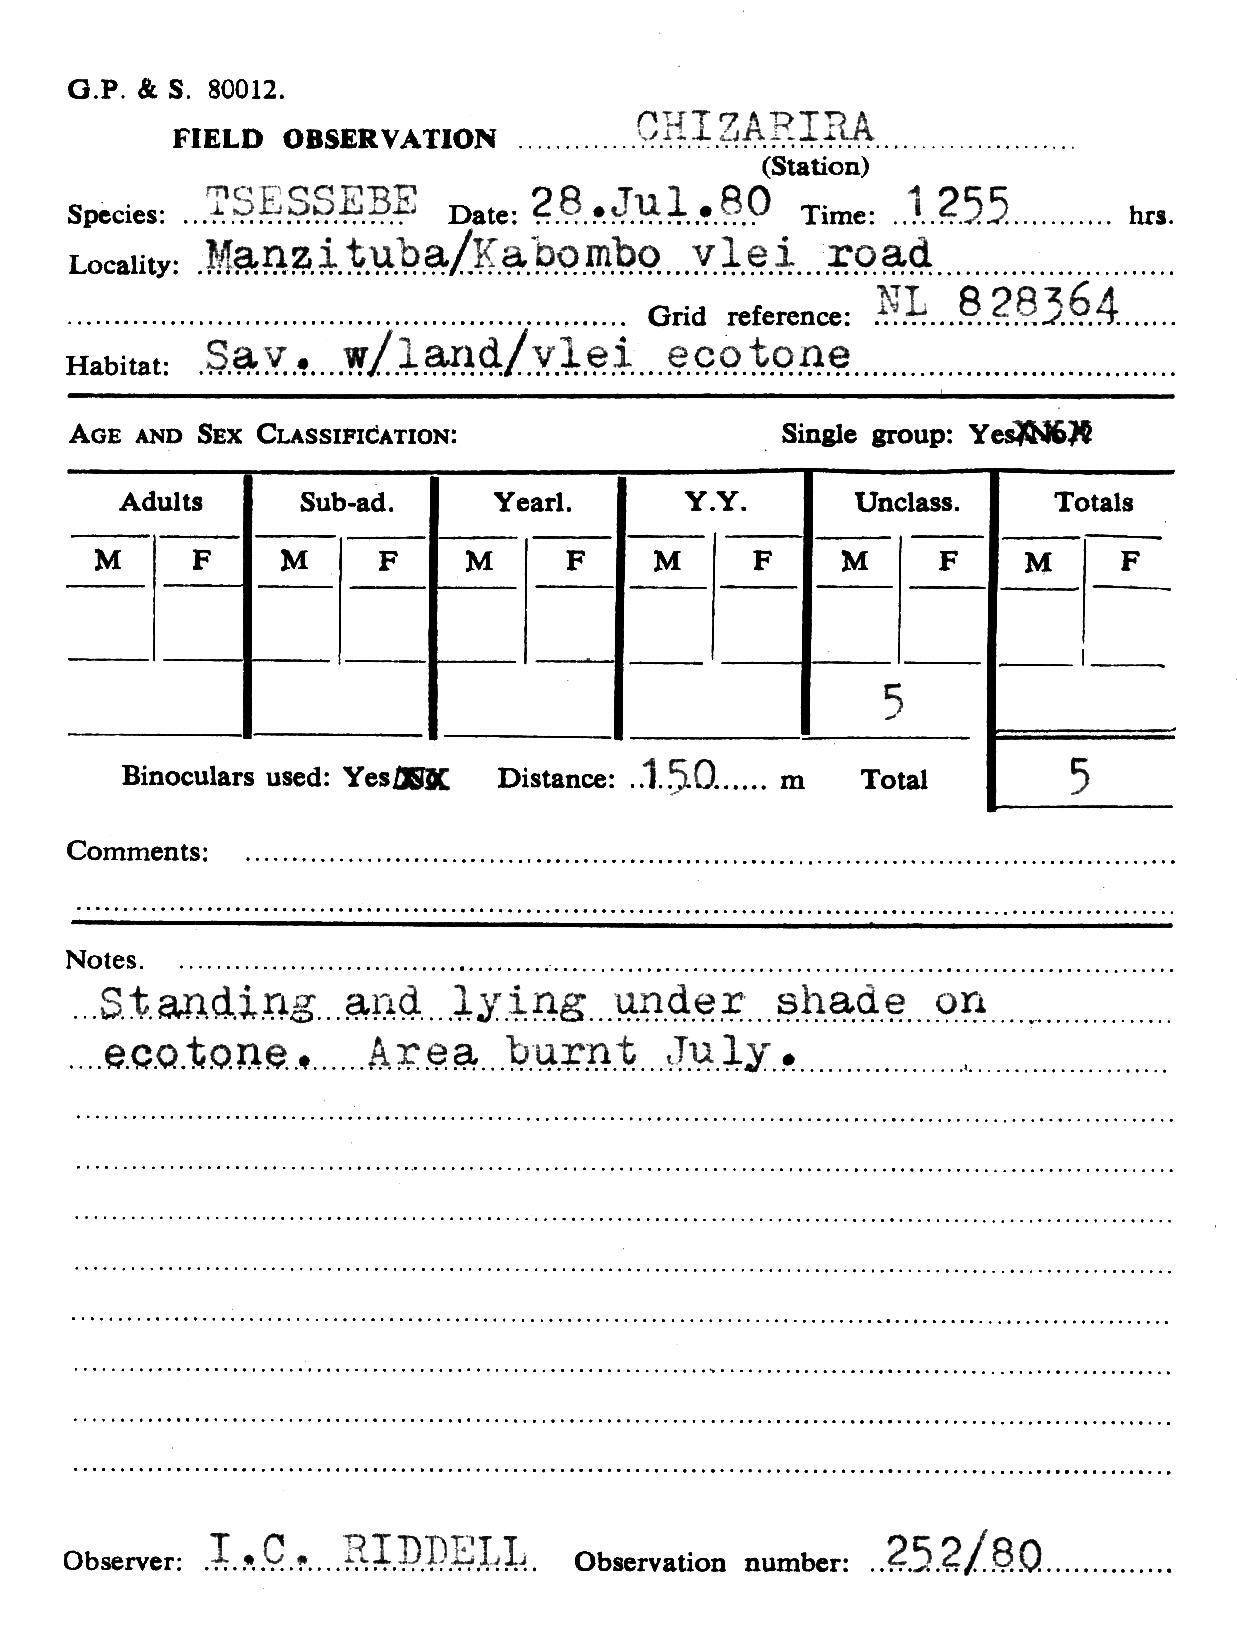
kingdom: Animalia
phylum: Chordata
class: Mammalia
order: Artiodactyla
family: Bovidae
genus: Damaliscus
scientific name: Damaliscus lunatus
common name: Common tsessebe
